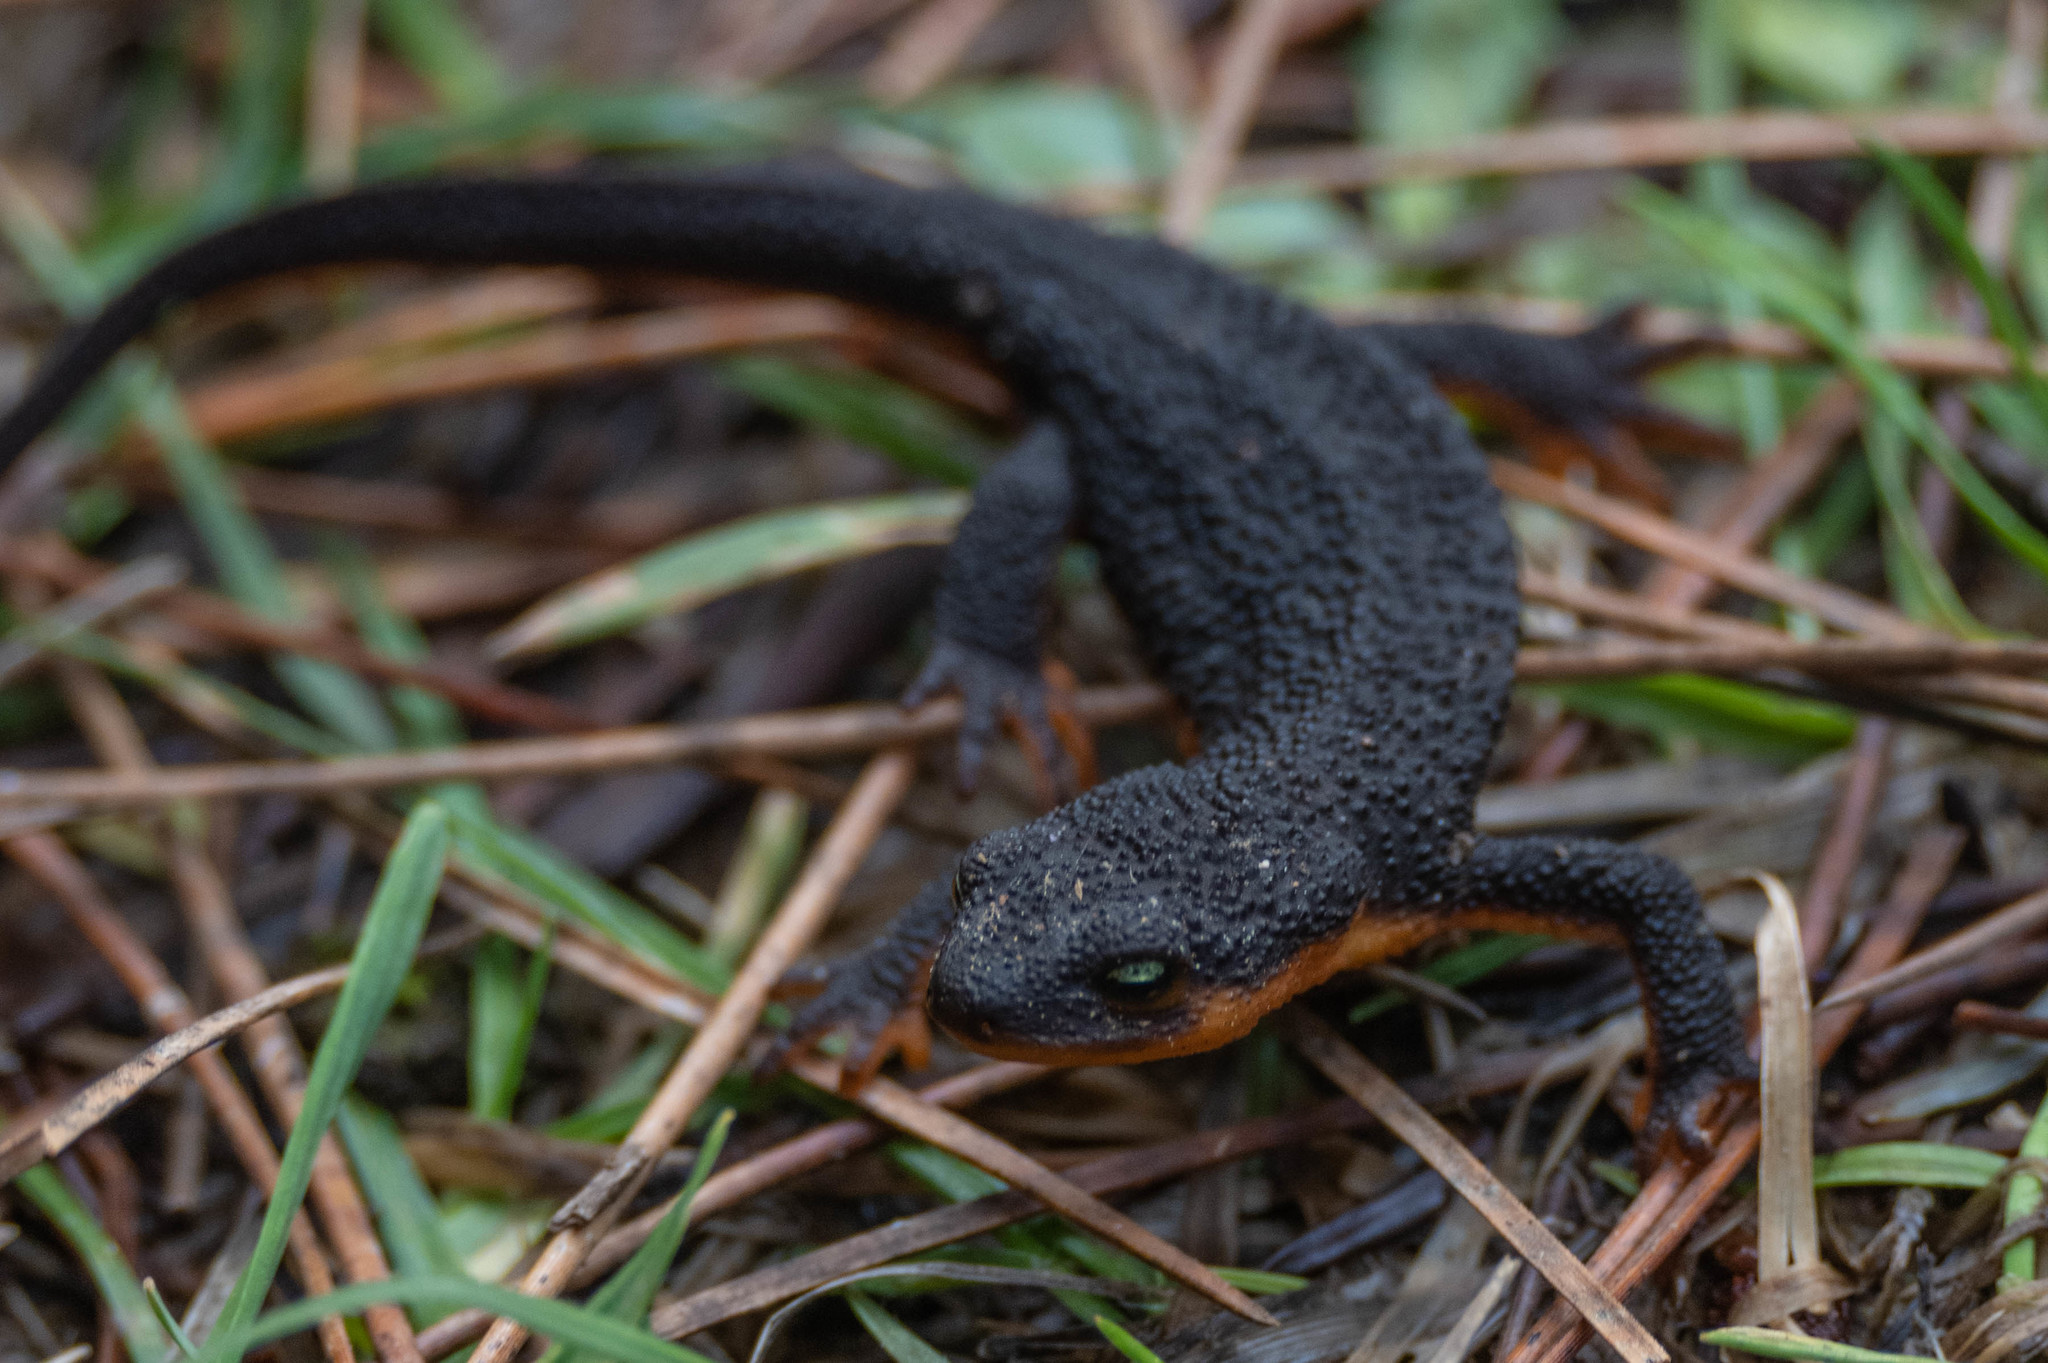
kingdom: Animalia
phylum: Chordata
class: Amphibia
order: Caudata
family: Salamandridae
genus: Taricha
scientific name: Taricha granulosa
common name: Roughskin newt
